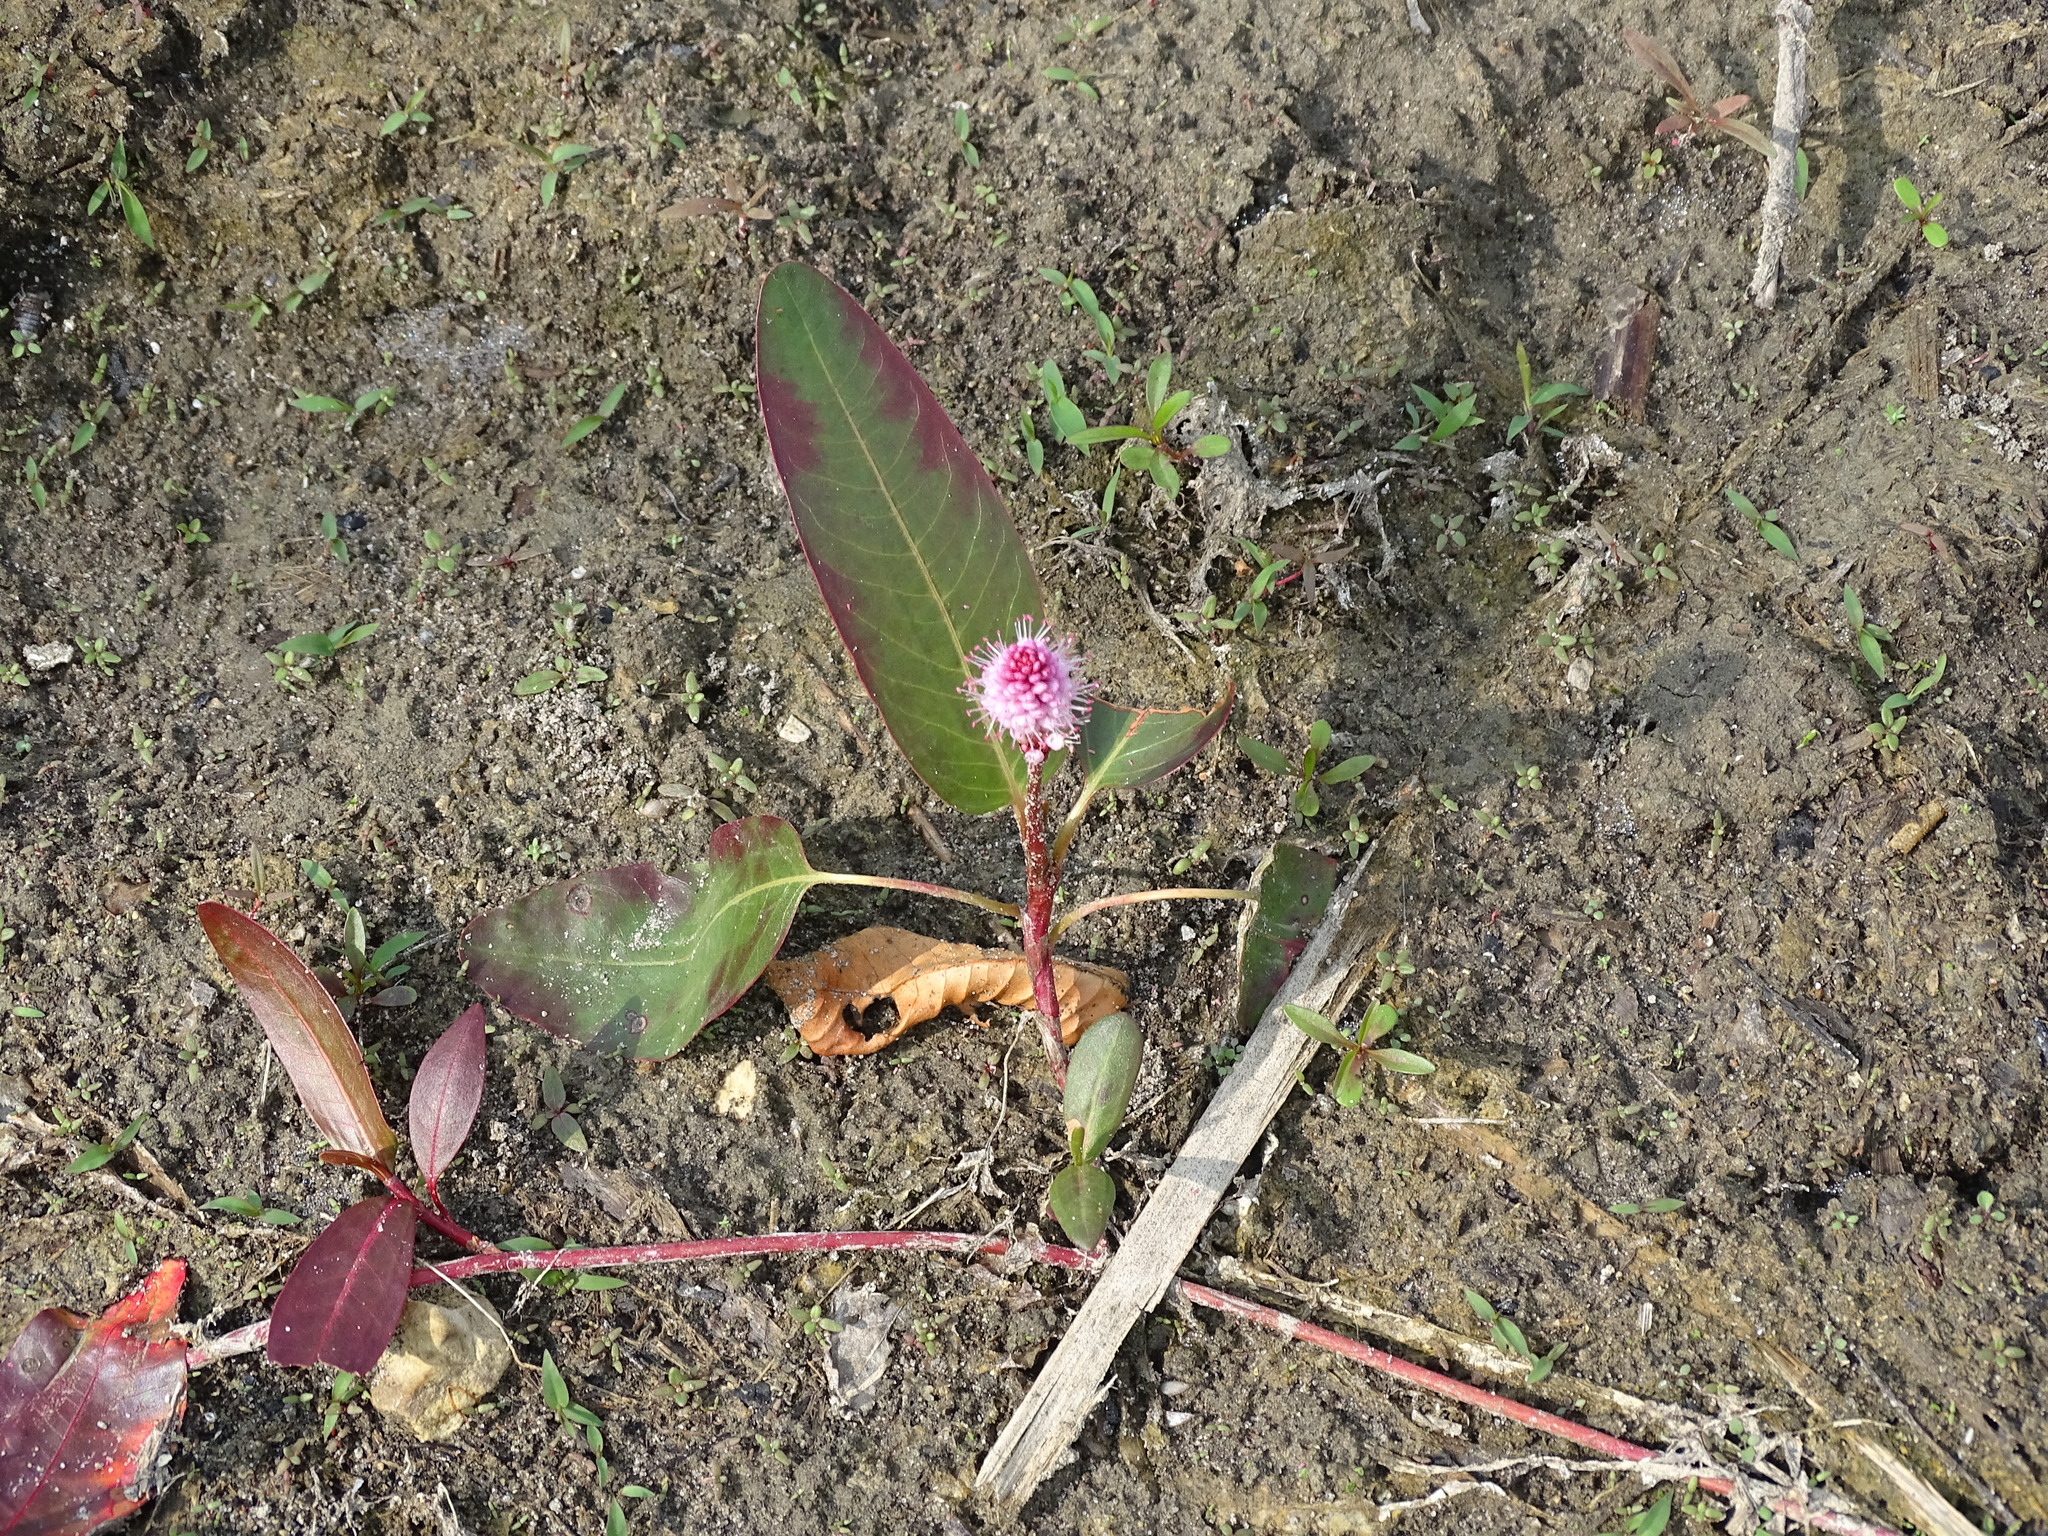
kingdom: Plantae
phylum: Tracheophyta
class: Magnoliopsida
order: Caryophyllales
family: Polygonaceae
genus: Persicaria
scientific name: Persicaria amphibia
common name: Amphibious bistort
